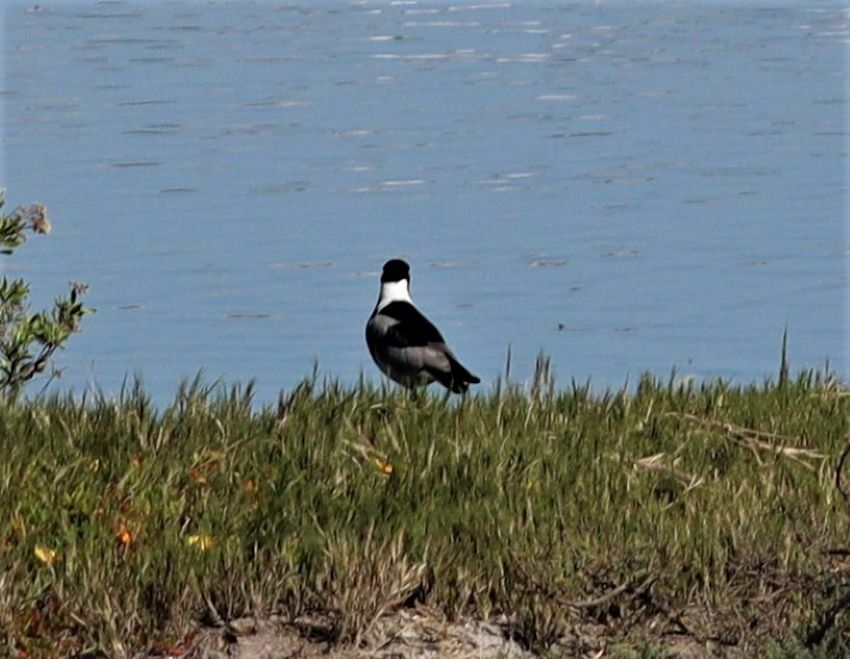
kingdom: Animalia
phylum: Chordata
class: Aves
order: Charadriiformes
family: Charadriidae
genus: Vanellus
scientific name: Vanellus armatus
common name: Blacksmith lapwing
